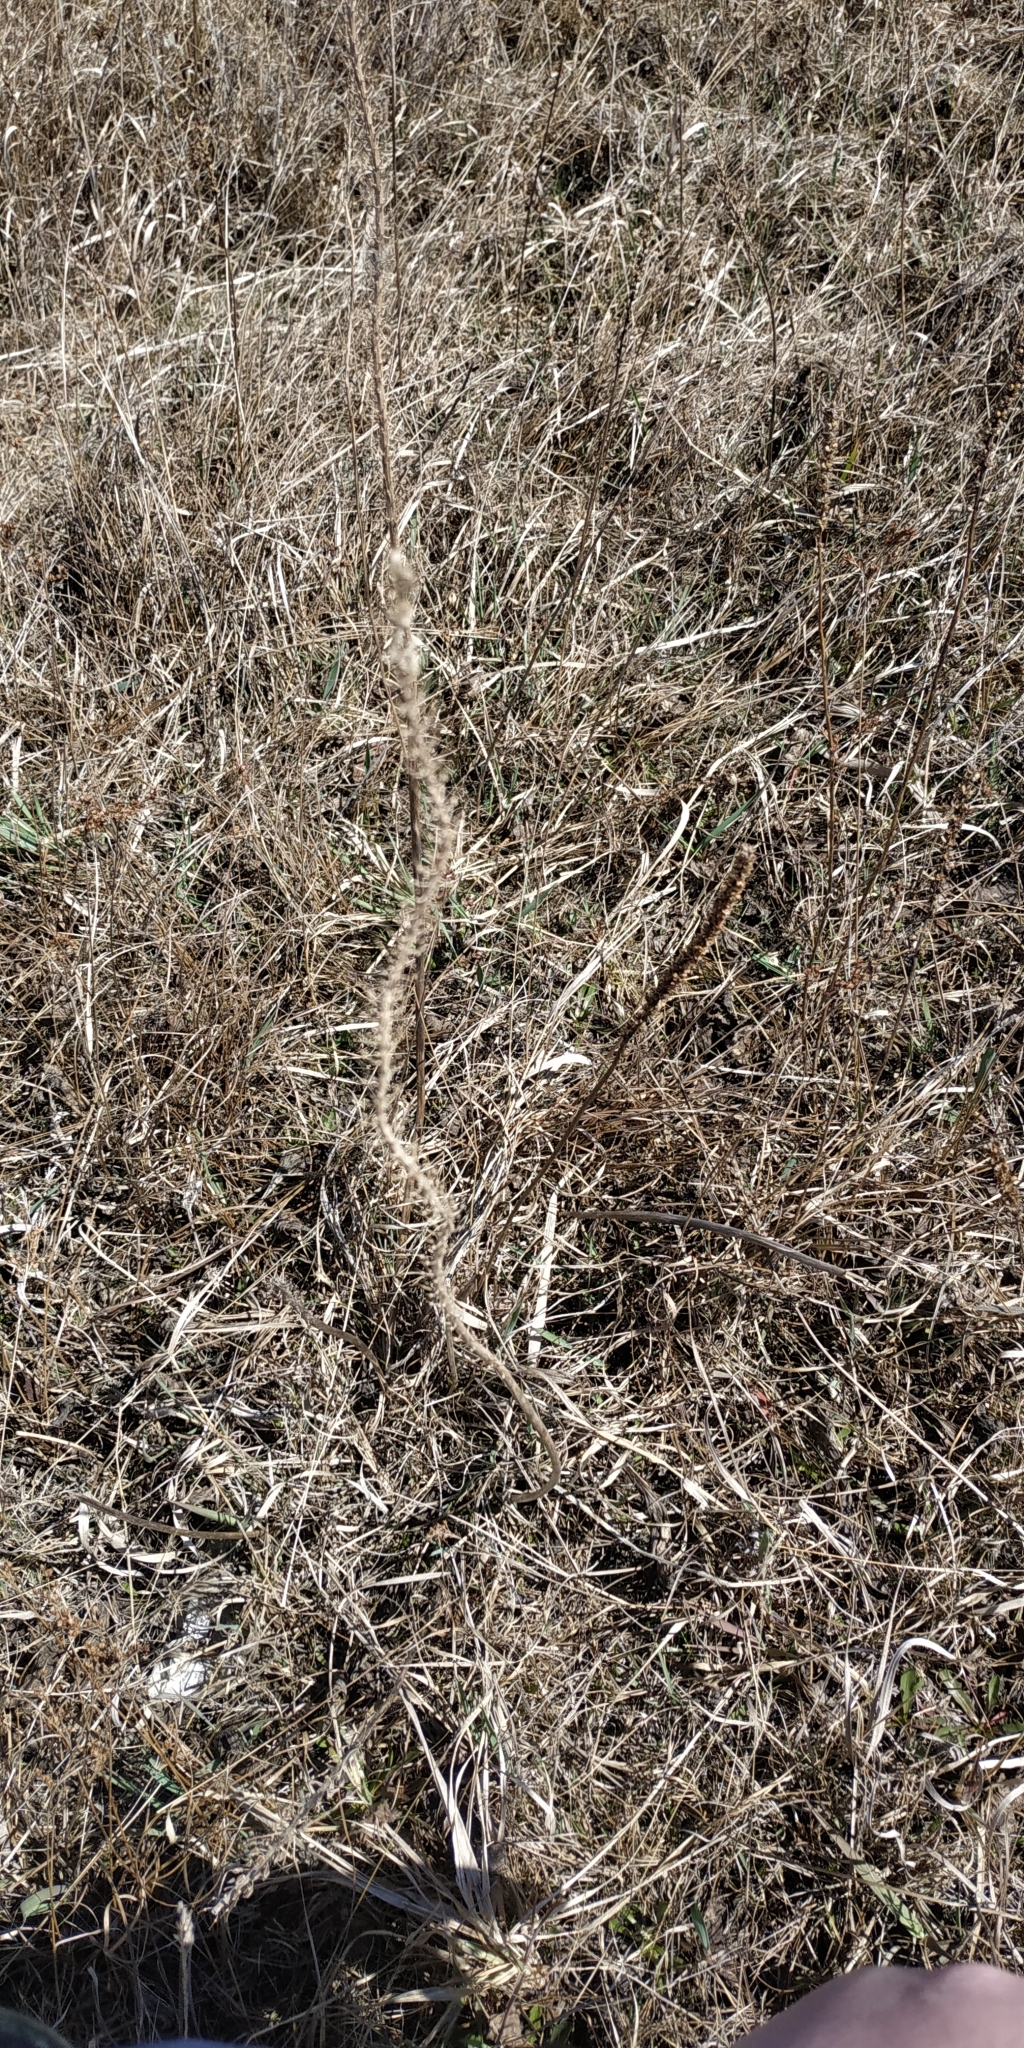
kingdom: Plantae
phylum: Tracheophyta
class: Liliopsida
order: Alismatales
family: Juncaginaceae
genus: Triglochin
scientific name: Triglochin maritima
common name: Sea arrowgrass
